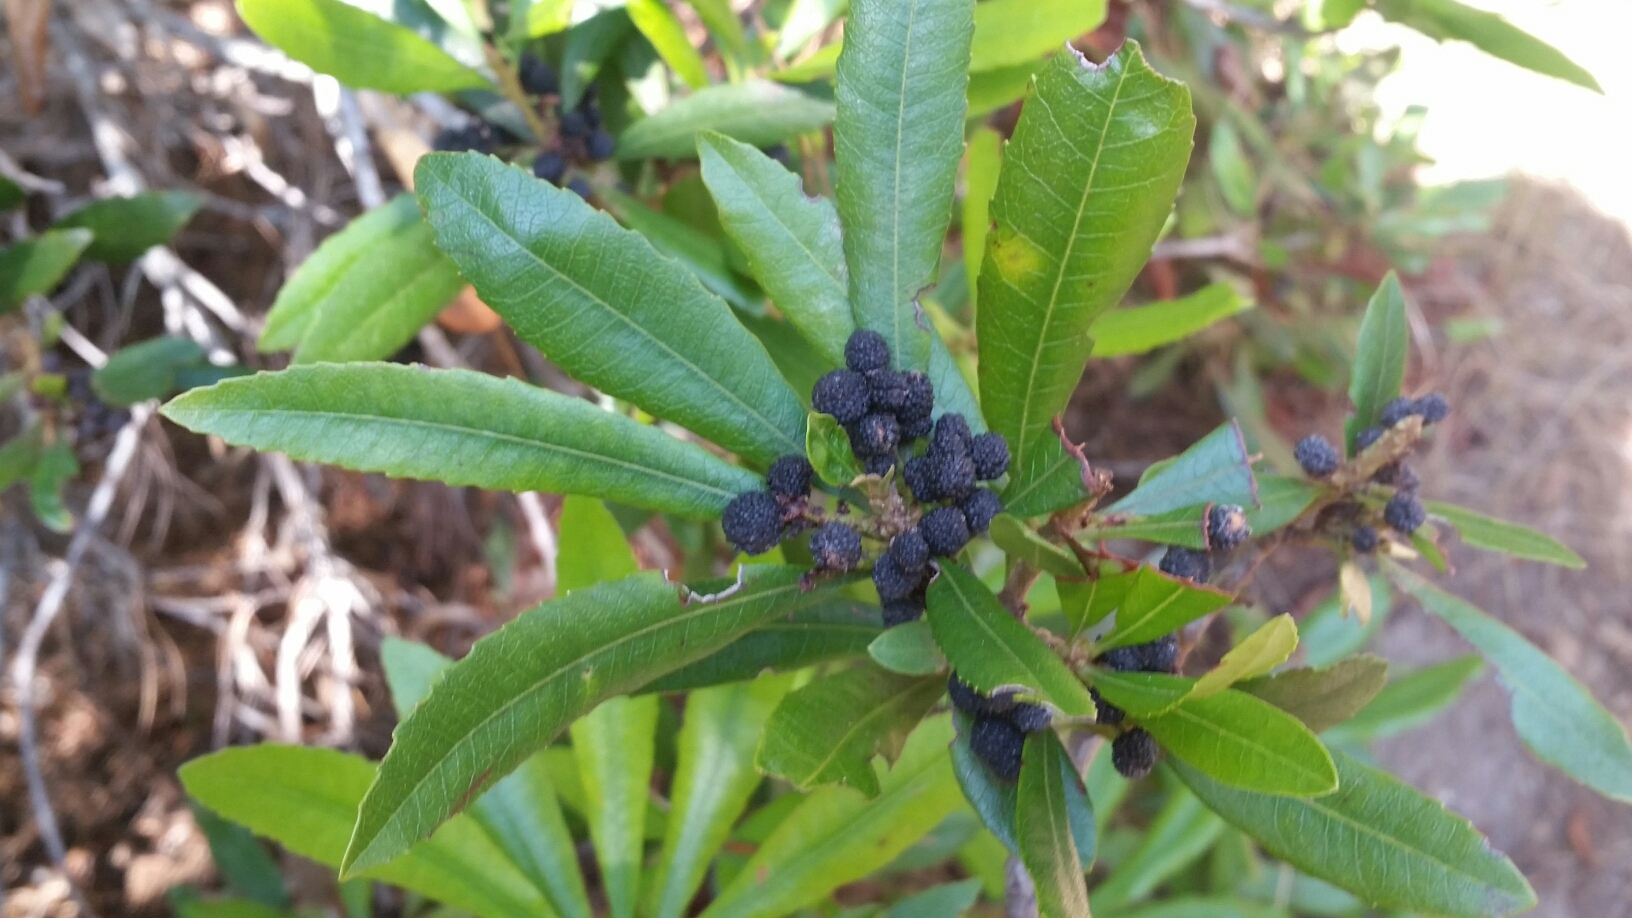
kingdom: Plantae
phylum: Tracheophyta
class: Magnoliopsida
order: Fagales
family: Myricaceae
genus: Morella
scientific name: Morella californica
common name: California wax-myrtle
